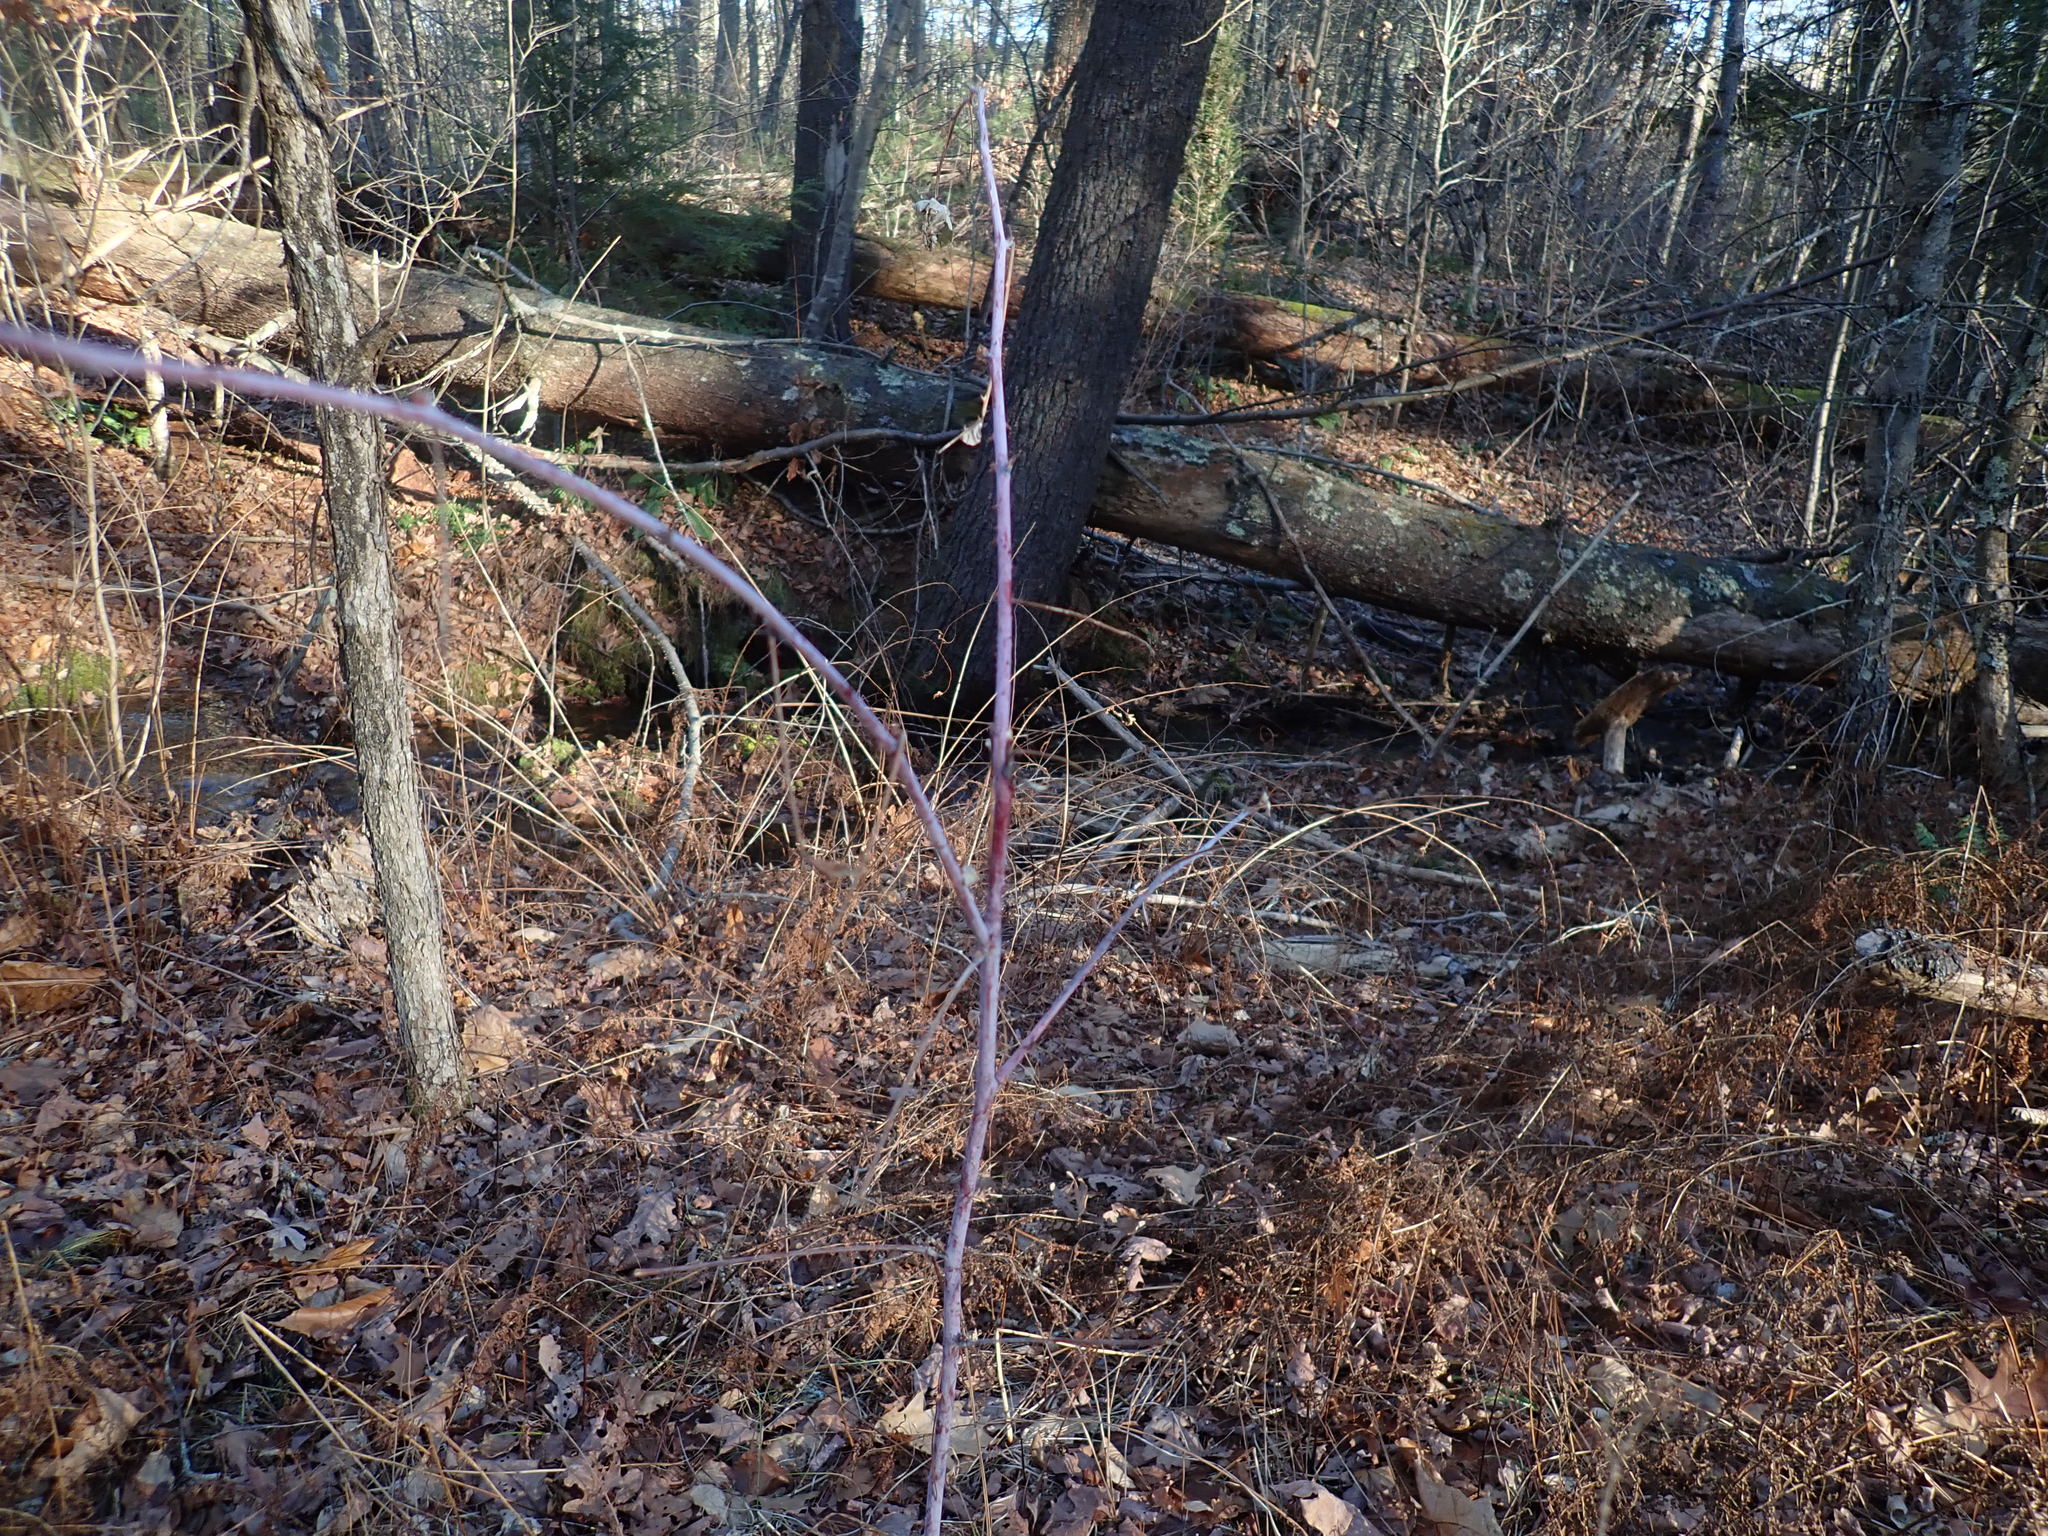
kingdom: Plantae
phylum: Tracheophyta
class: Magnoliopsida
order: Rosales
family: Rosaceae
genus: Rubus
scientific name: Rubus occidentalis
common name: Black raspberry
